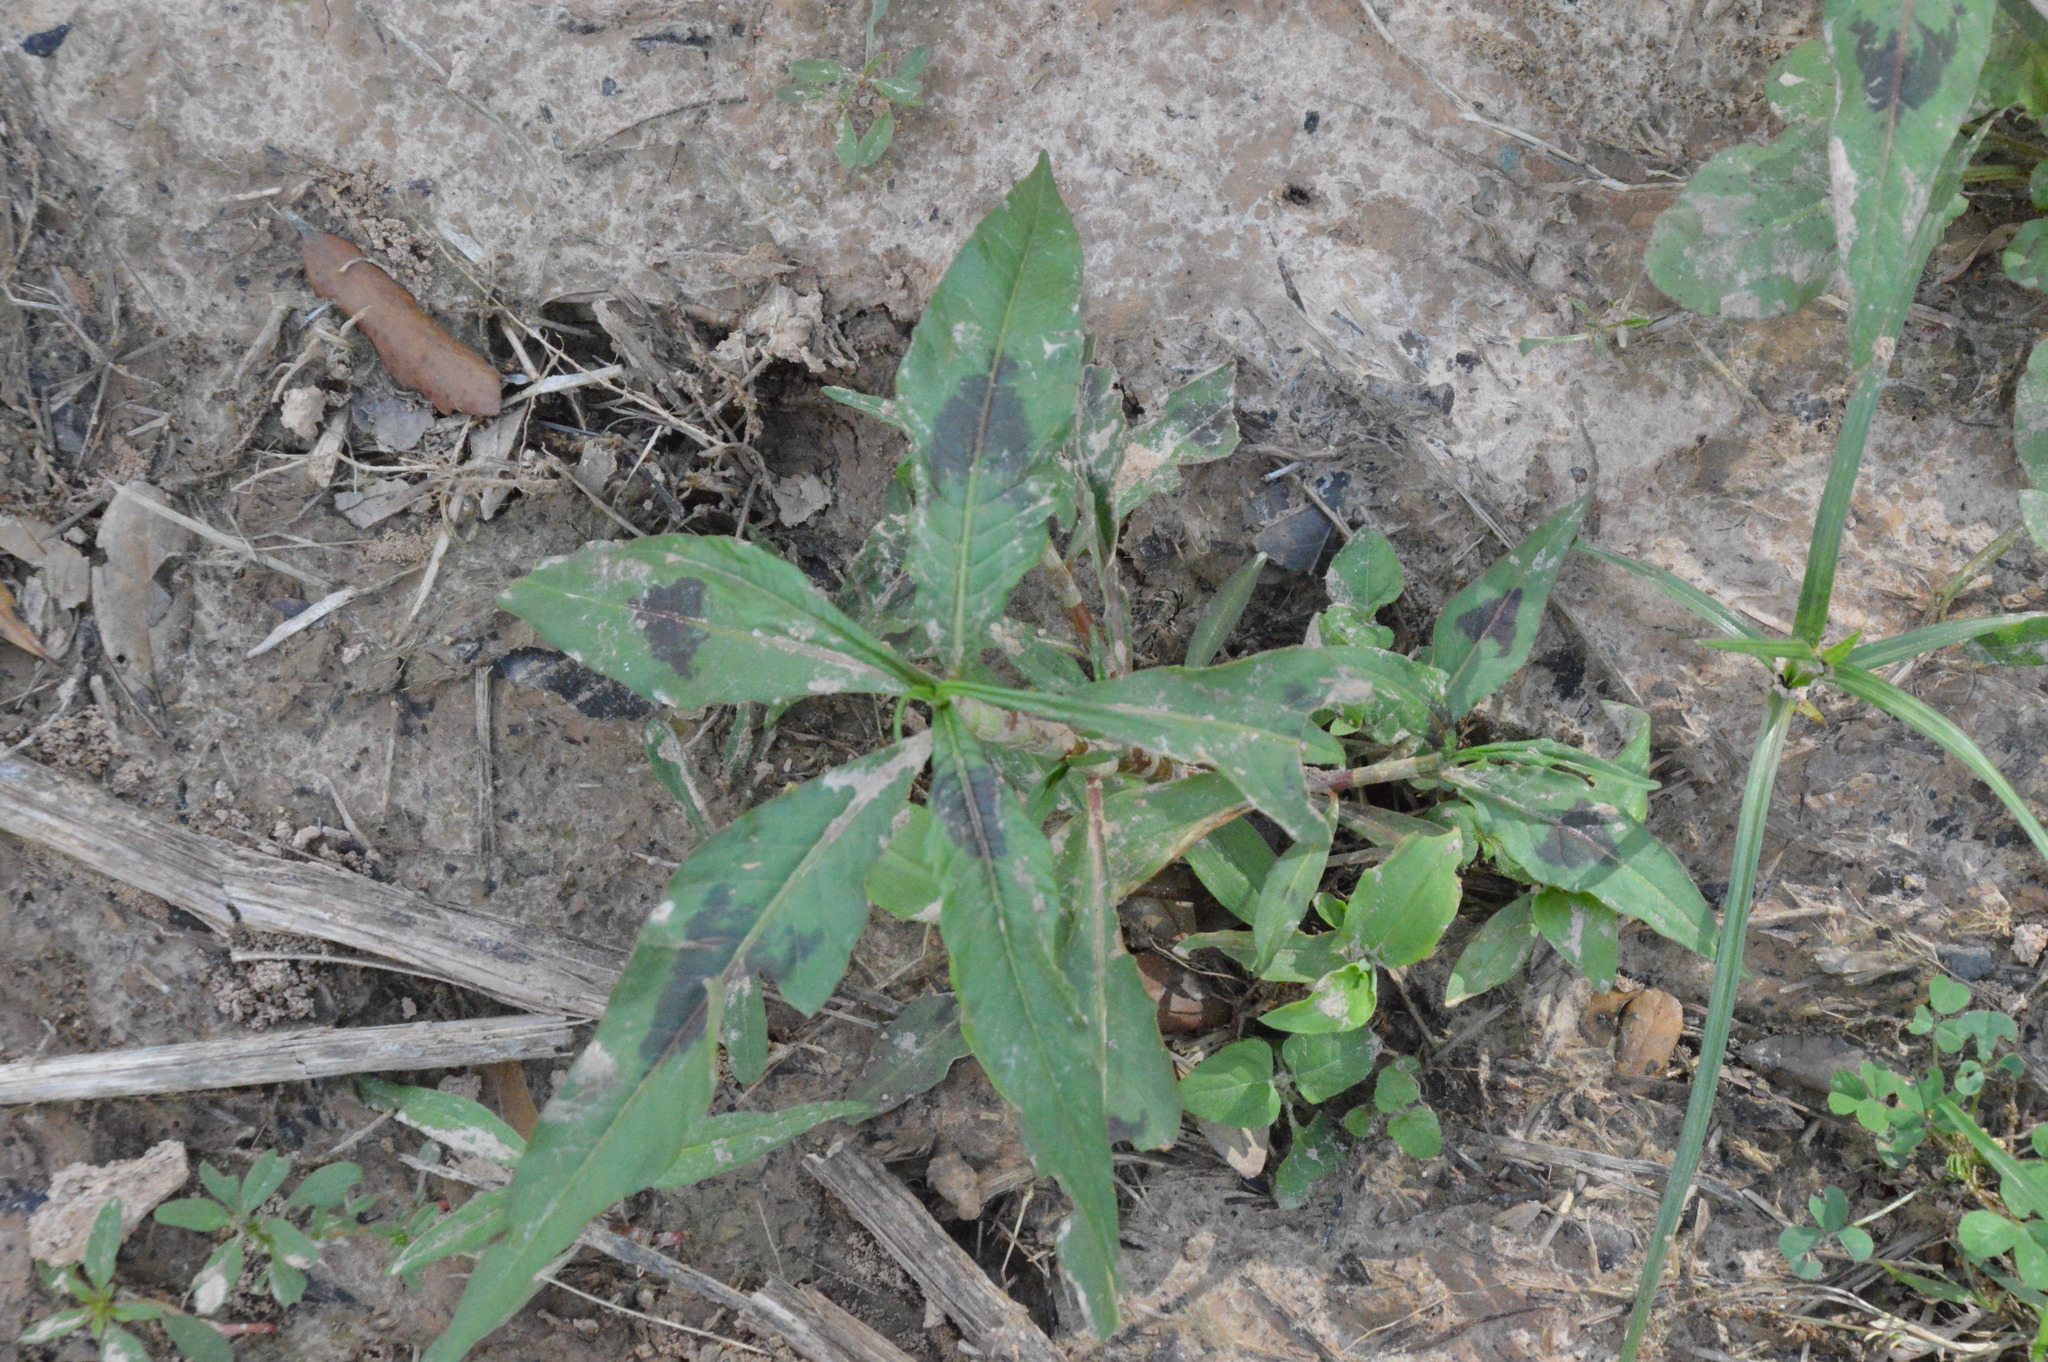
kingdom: Plantae
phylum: Tracheophyta
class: Magnoliopsida
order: Caryophyllales
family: Polygonaceae
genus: Persicaria
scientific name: Persicaria maculosa
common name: Redshank
